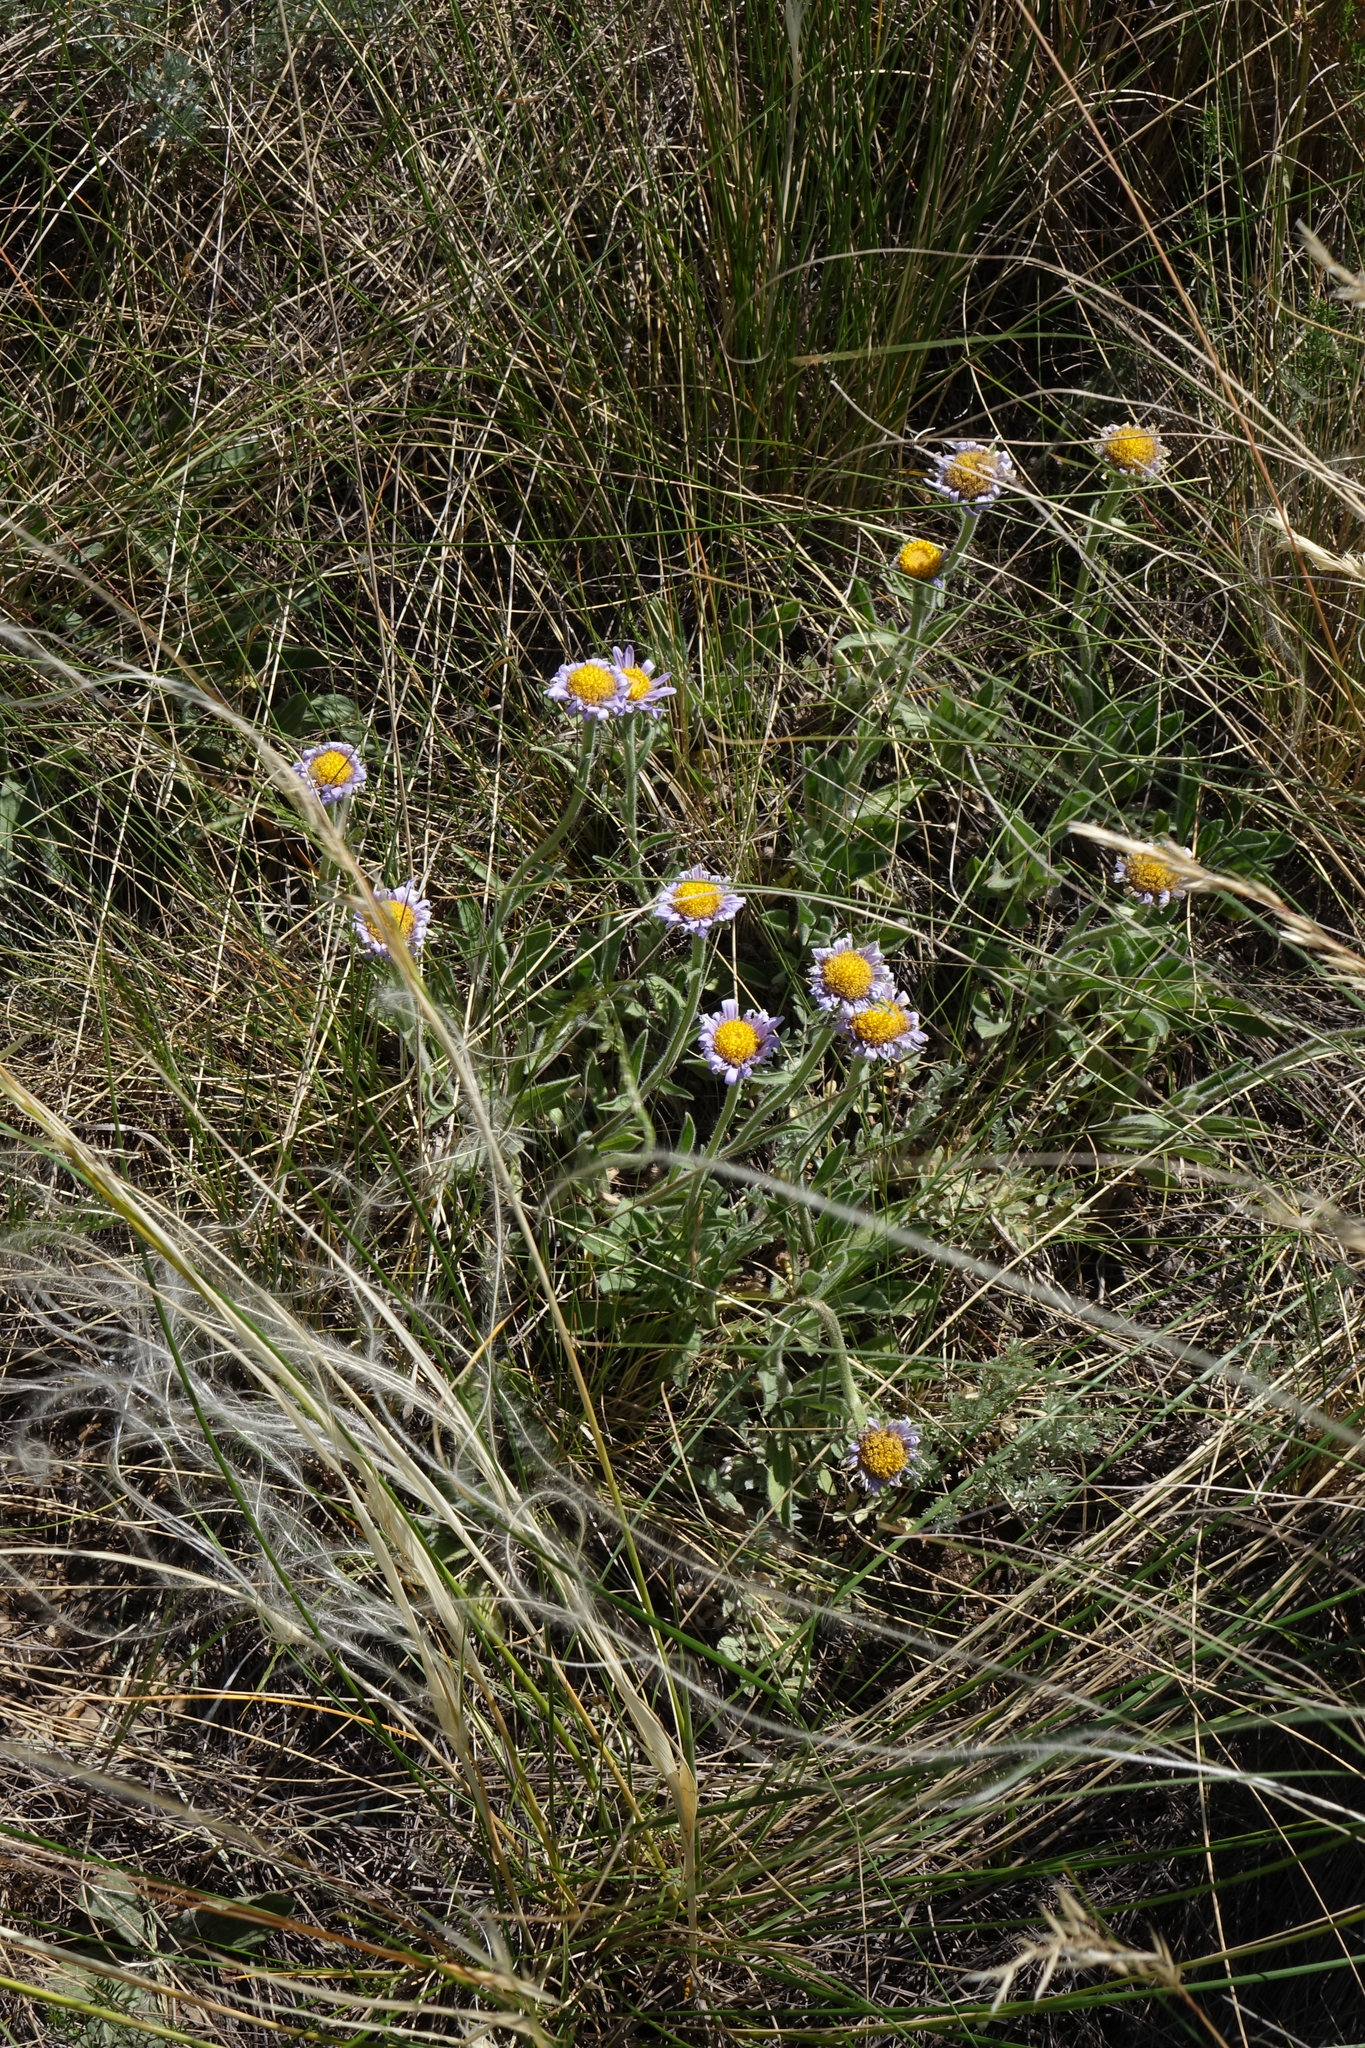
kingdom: Plantae
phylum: Tracheophyta
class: Magnoliopsida
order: Asterales
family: Asteraceae
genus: Aster
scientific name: Aster alpinus
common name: Alpine aster
